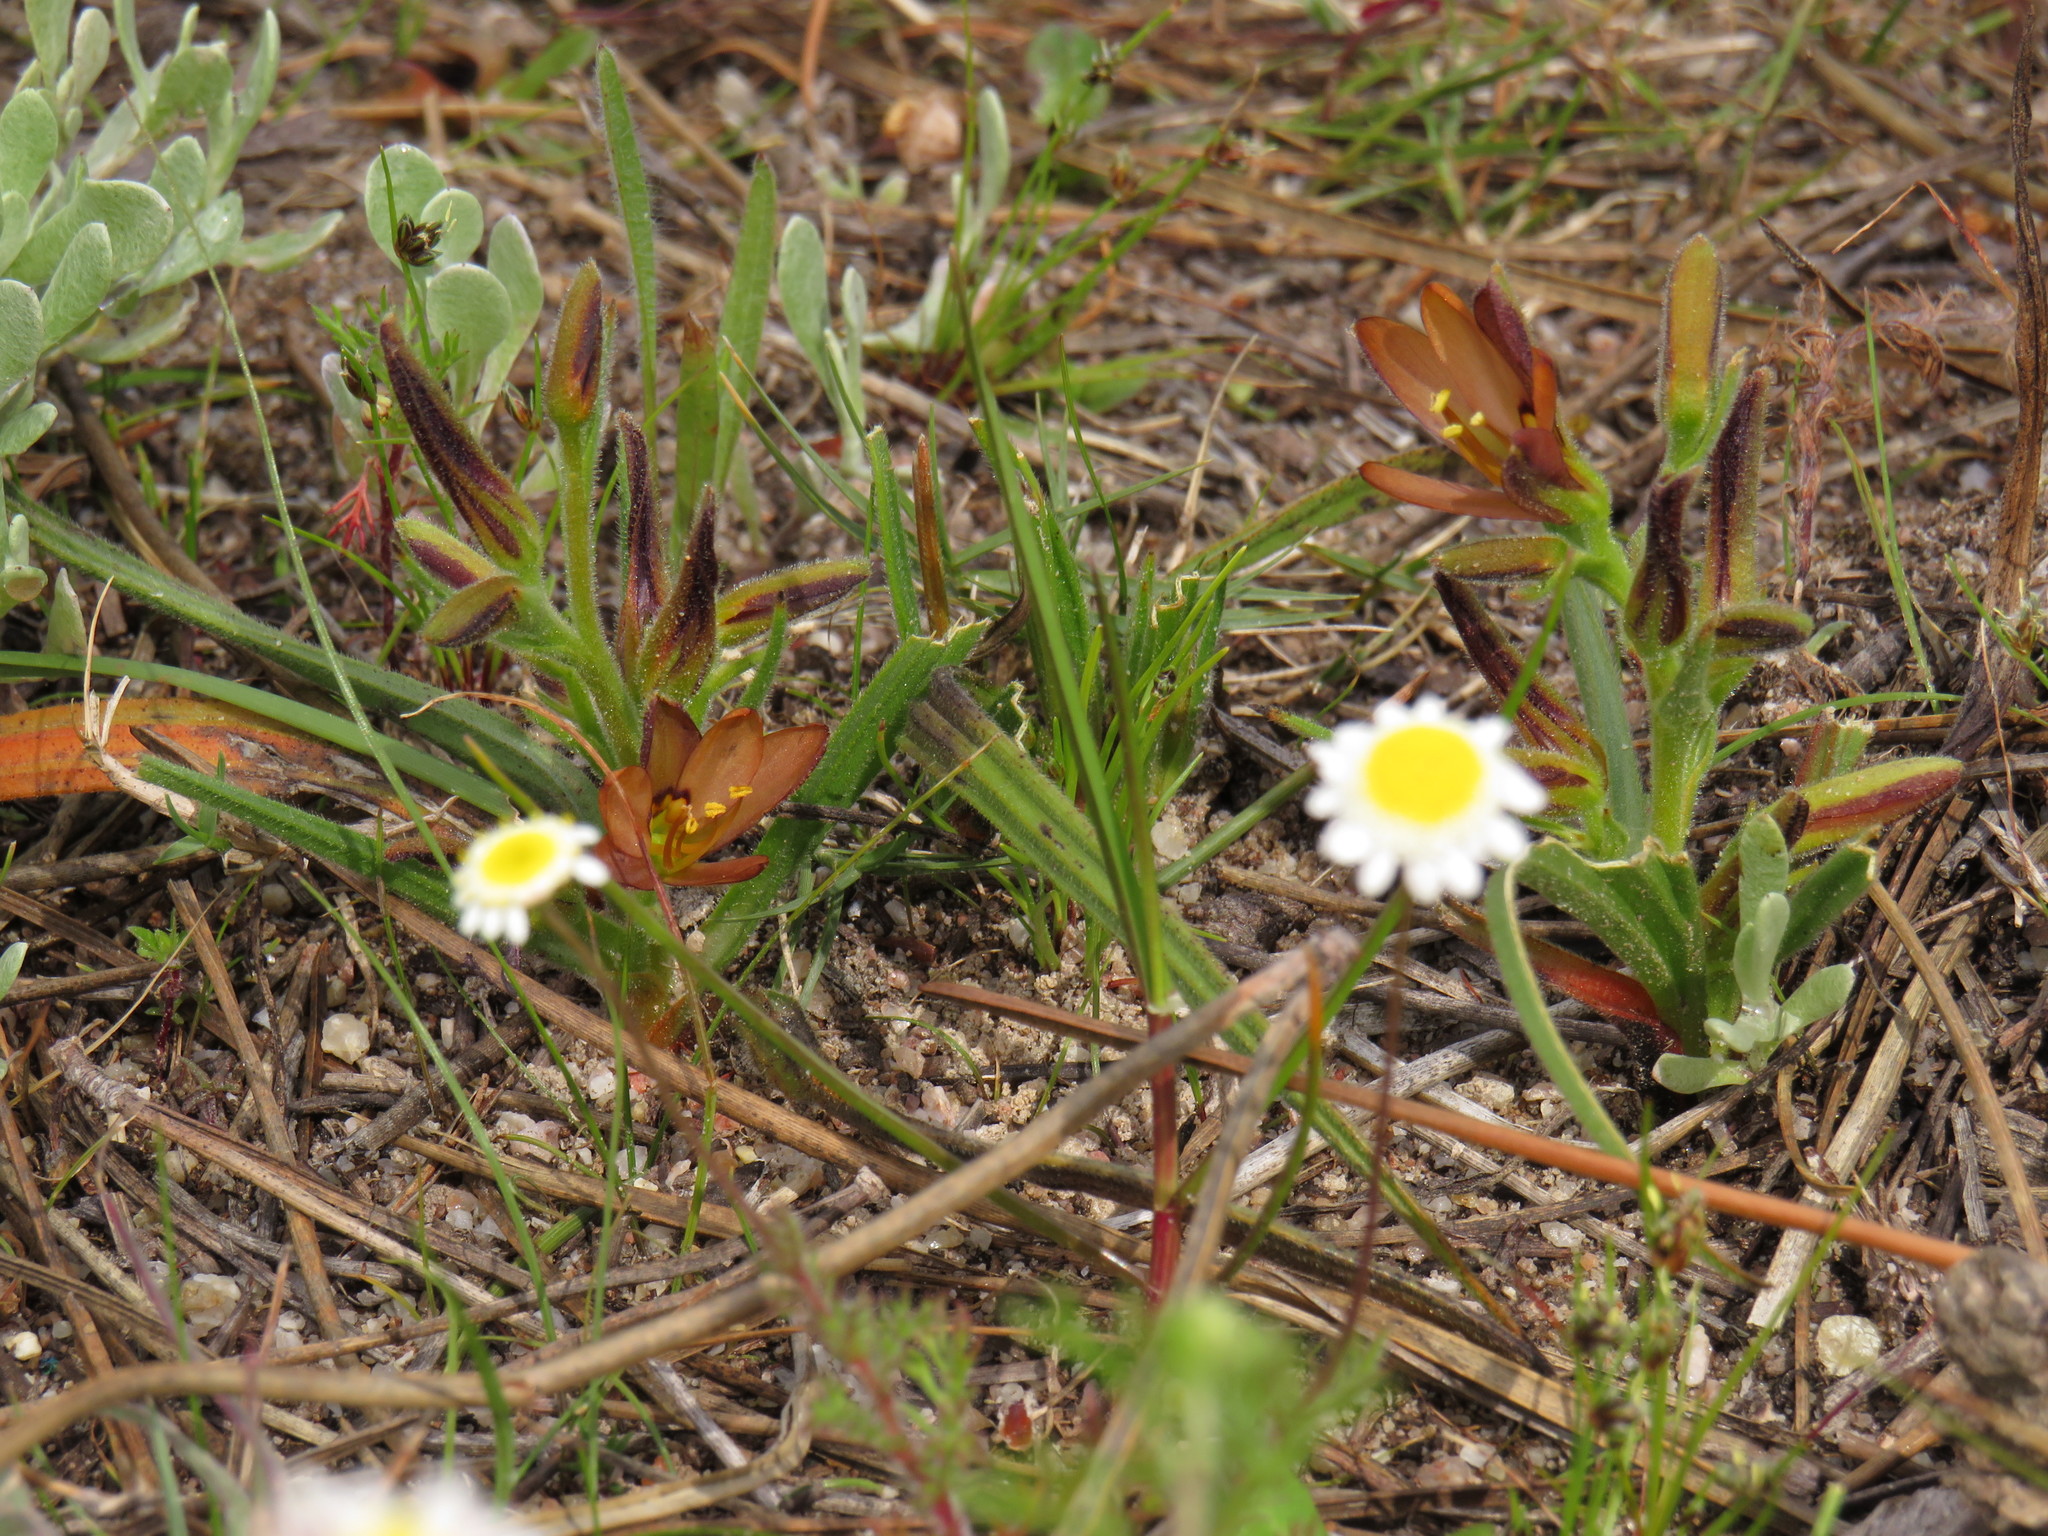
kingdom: Plantae
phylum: Tracheophyta
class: Liliopsida
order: Commelinales
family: Haemodoraceae
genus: Wachendorfia
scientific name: Wachendorfia multiflora
